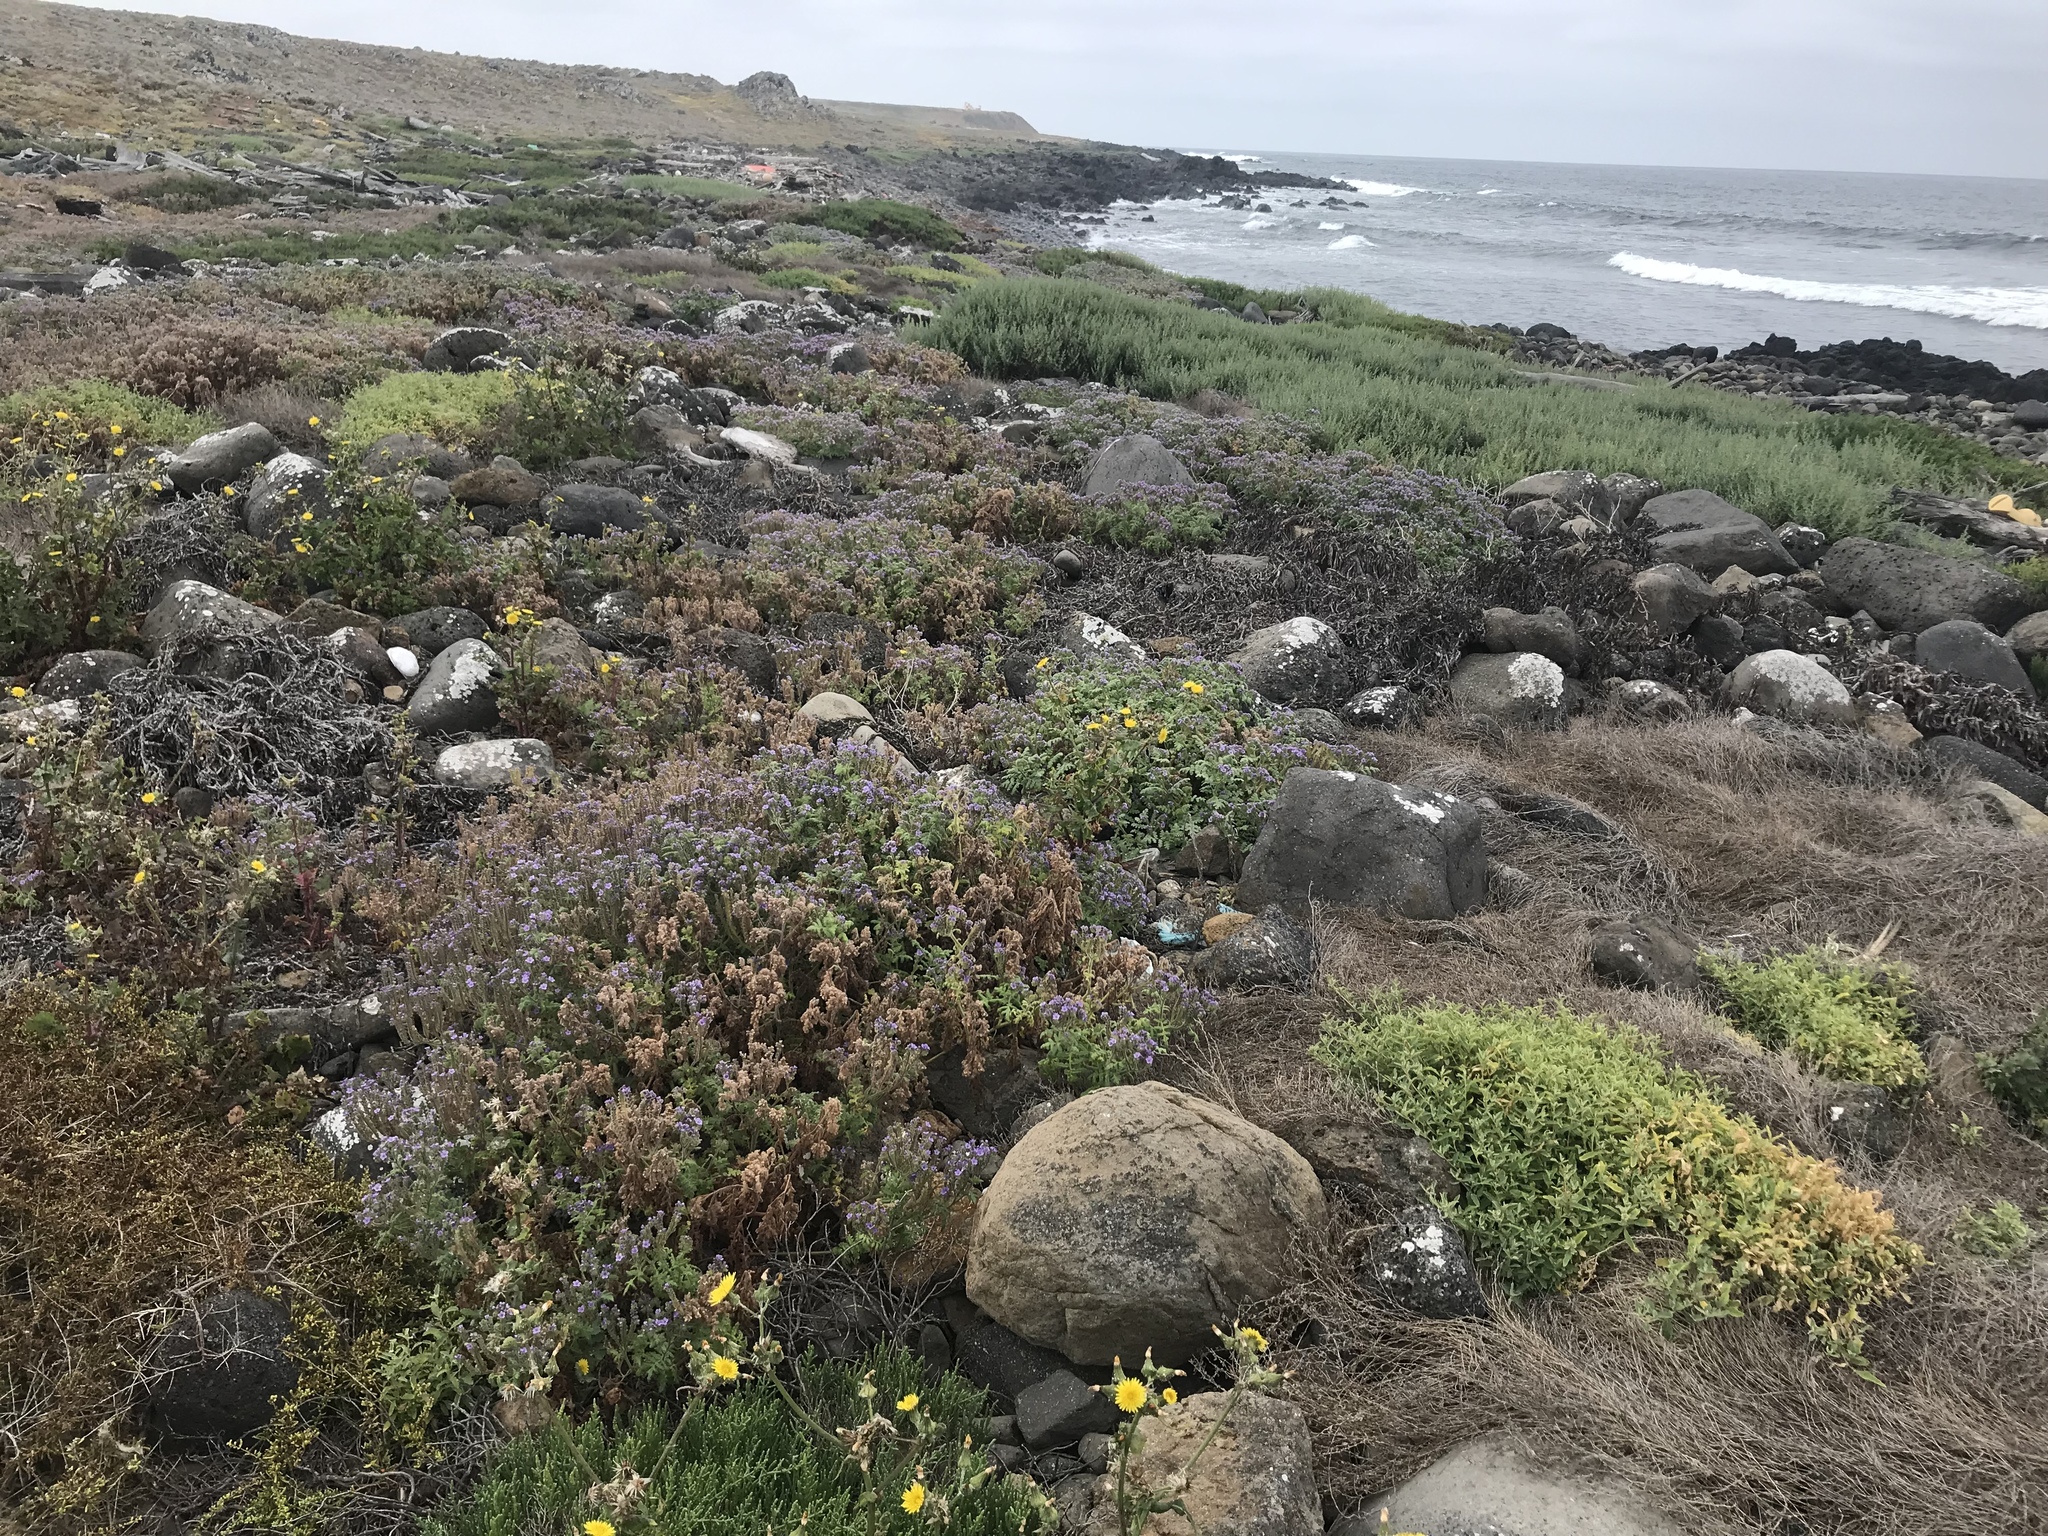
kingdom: Plantae
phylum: Tracheophyta
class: Magnoliopsida
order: Boraginales
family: Hydrophyllaceae
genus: Phacelia
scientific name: Phacelia floribunda
